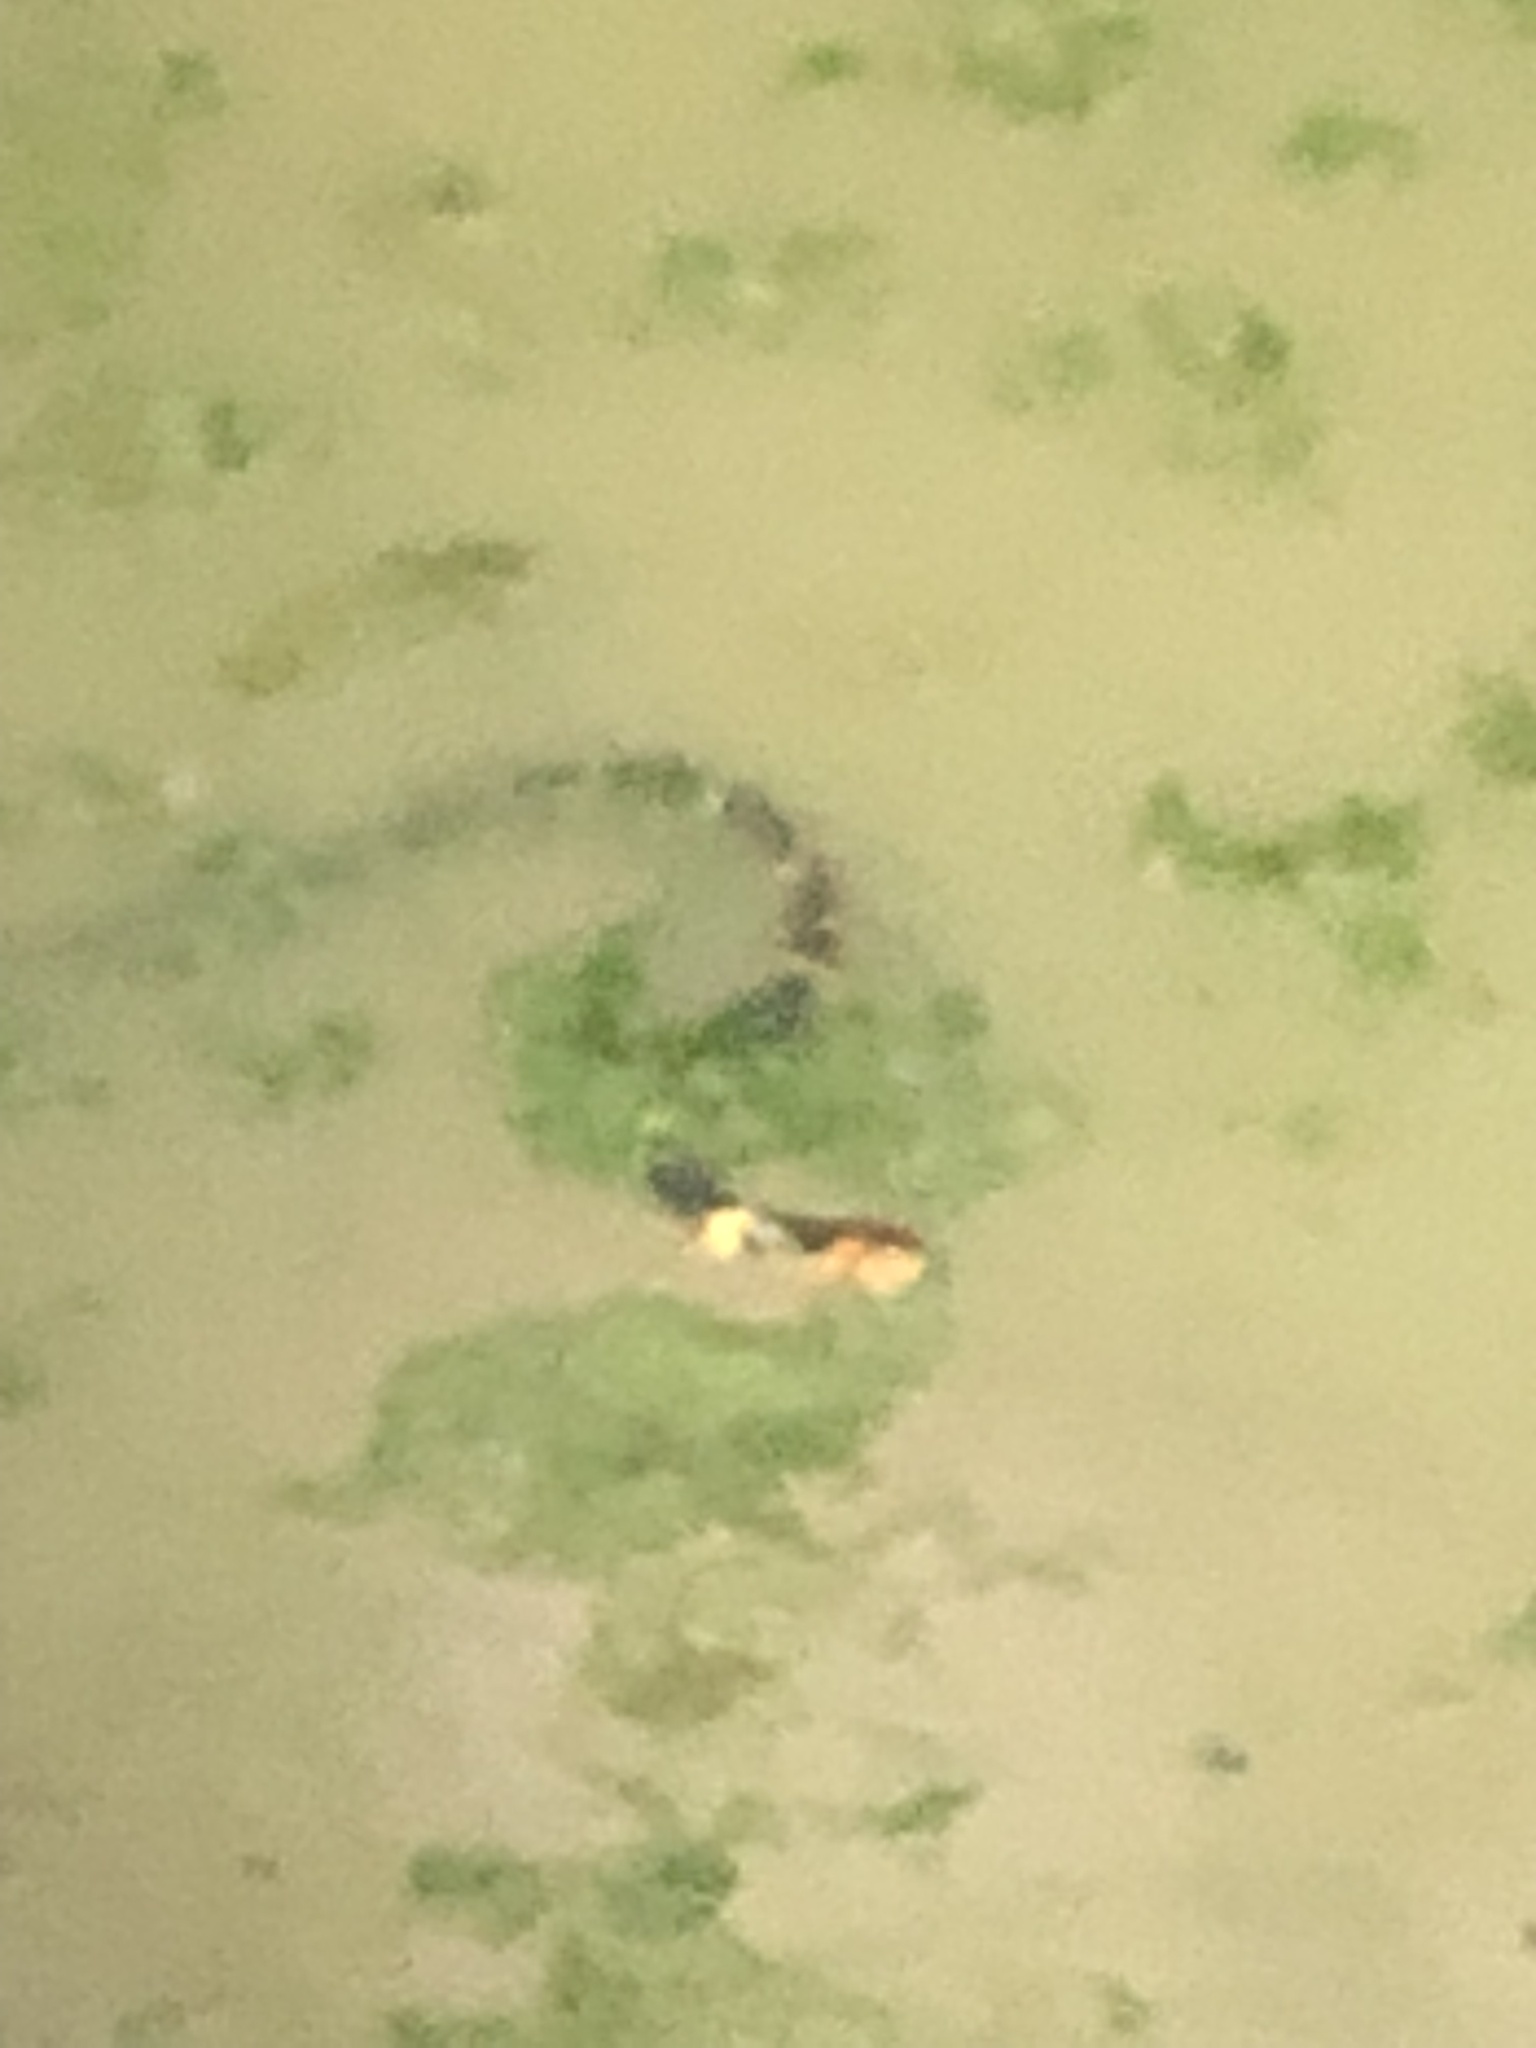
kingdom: Animalia
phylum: Chordata
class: Squamata
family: Colubridae
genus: Nerodia
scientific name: Nerodia fasciata
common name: Southern water snake
